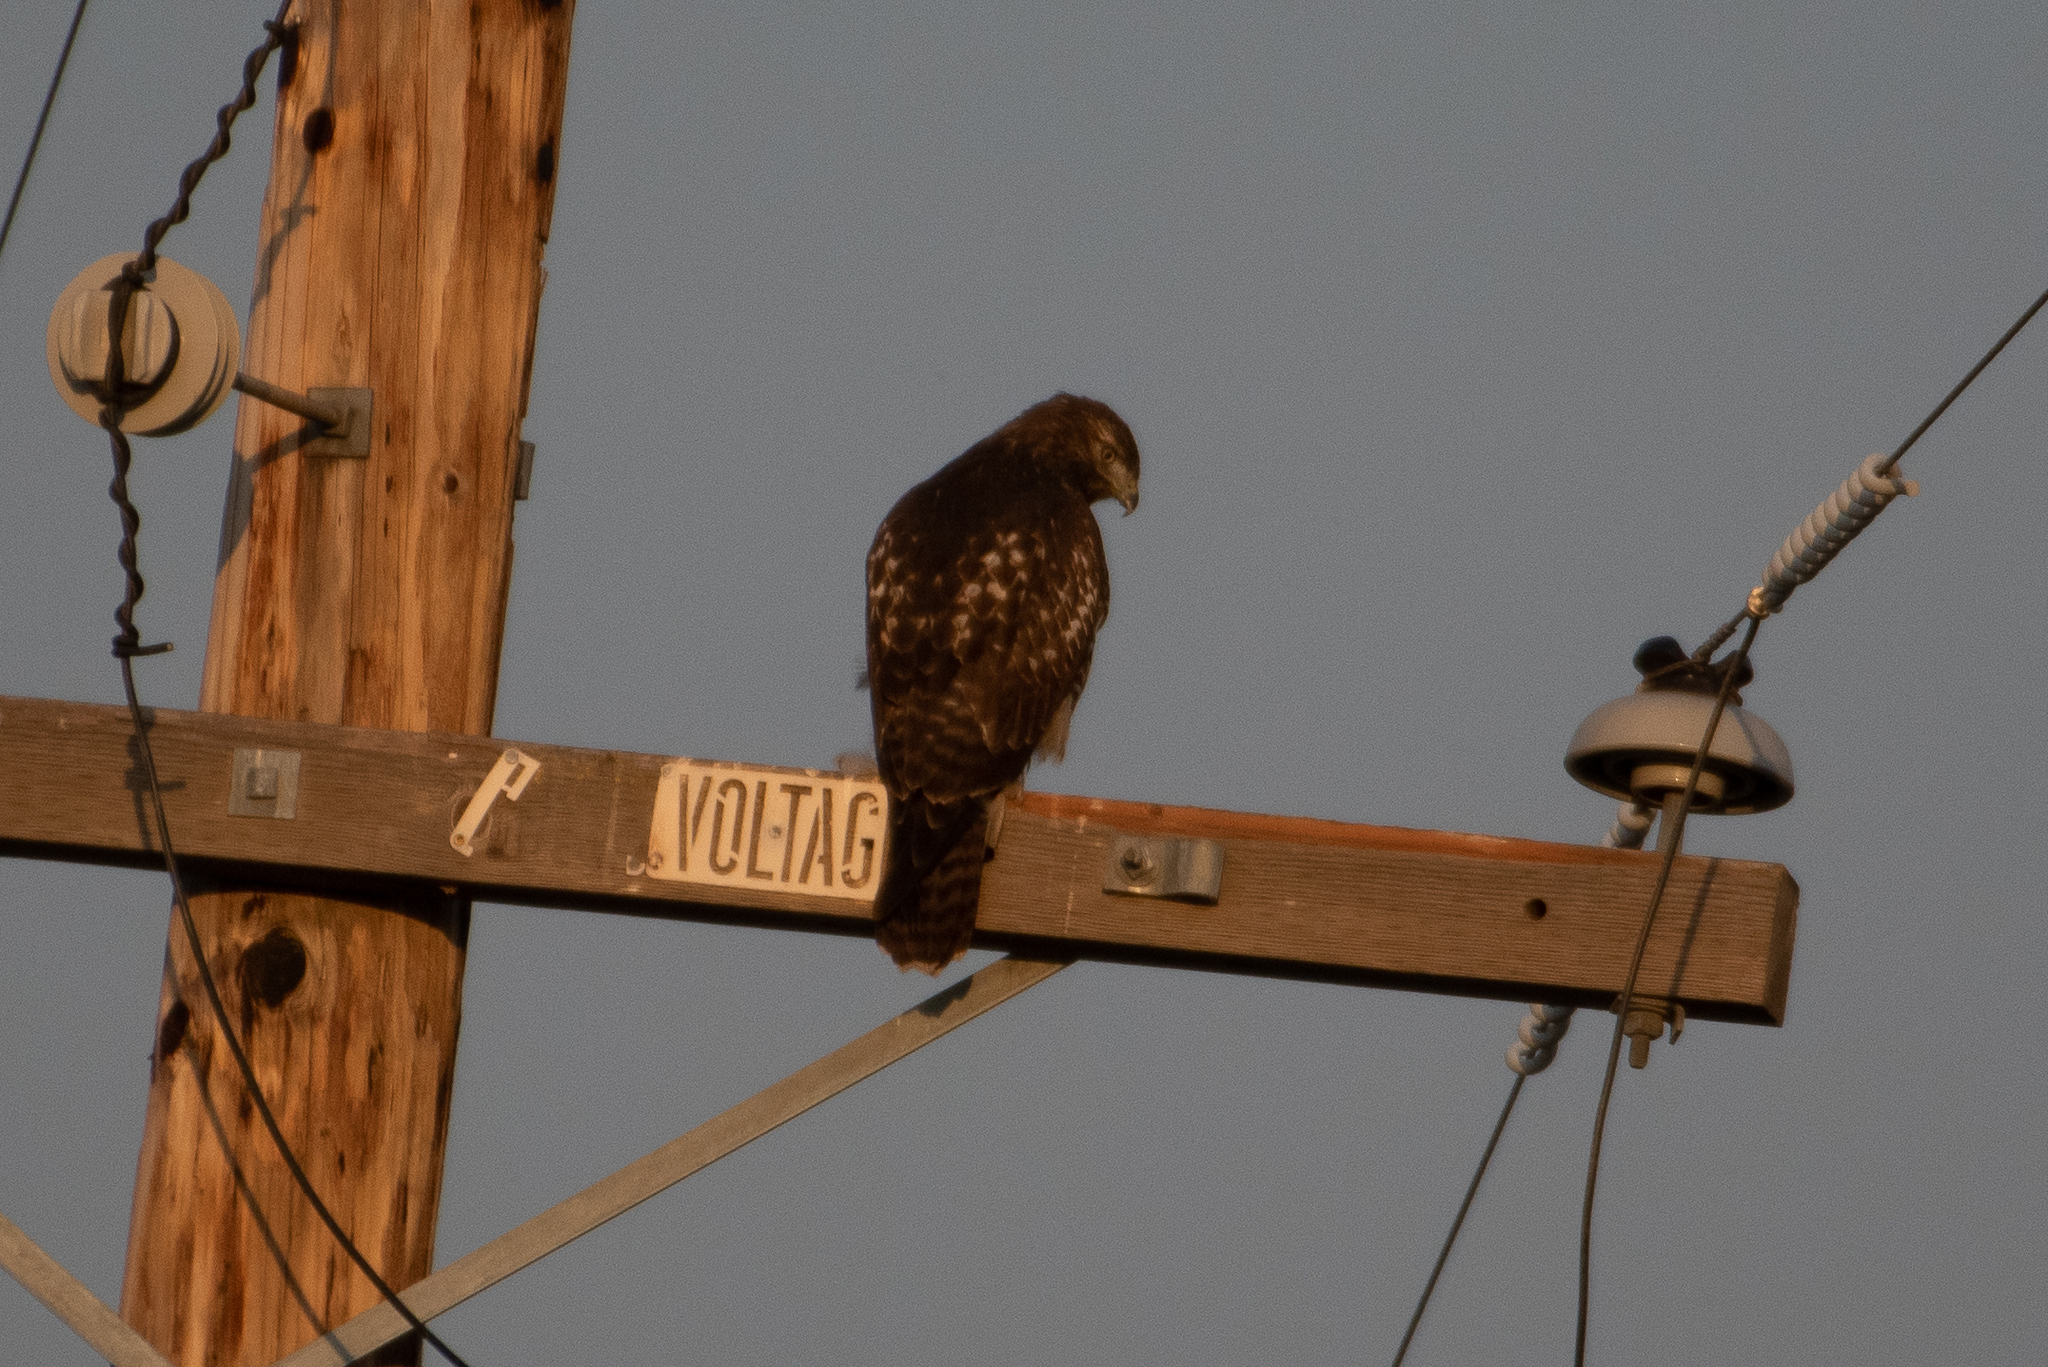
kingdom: Animalia
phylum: Chordata
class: Aves
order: Accipitriformes
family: Accipitridae
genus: Buteo
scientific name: Buteo jamaicensis
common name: Red-tailed hawk
